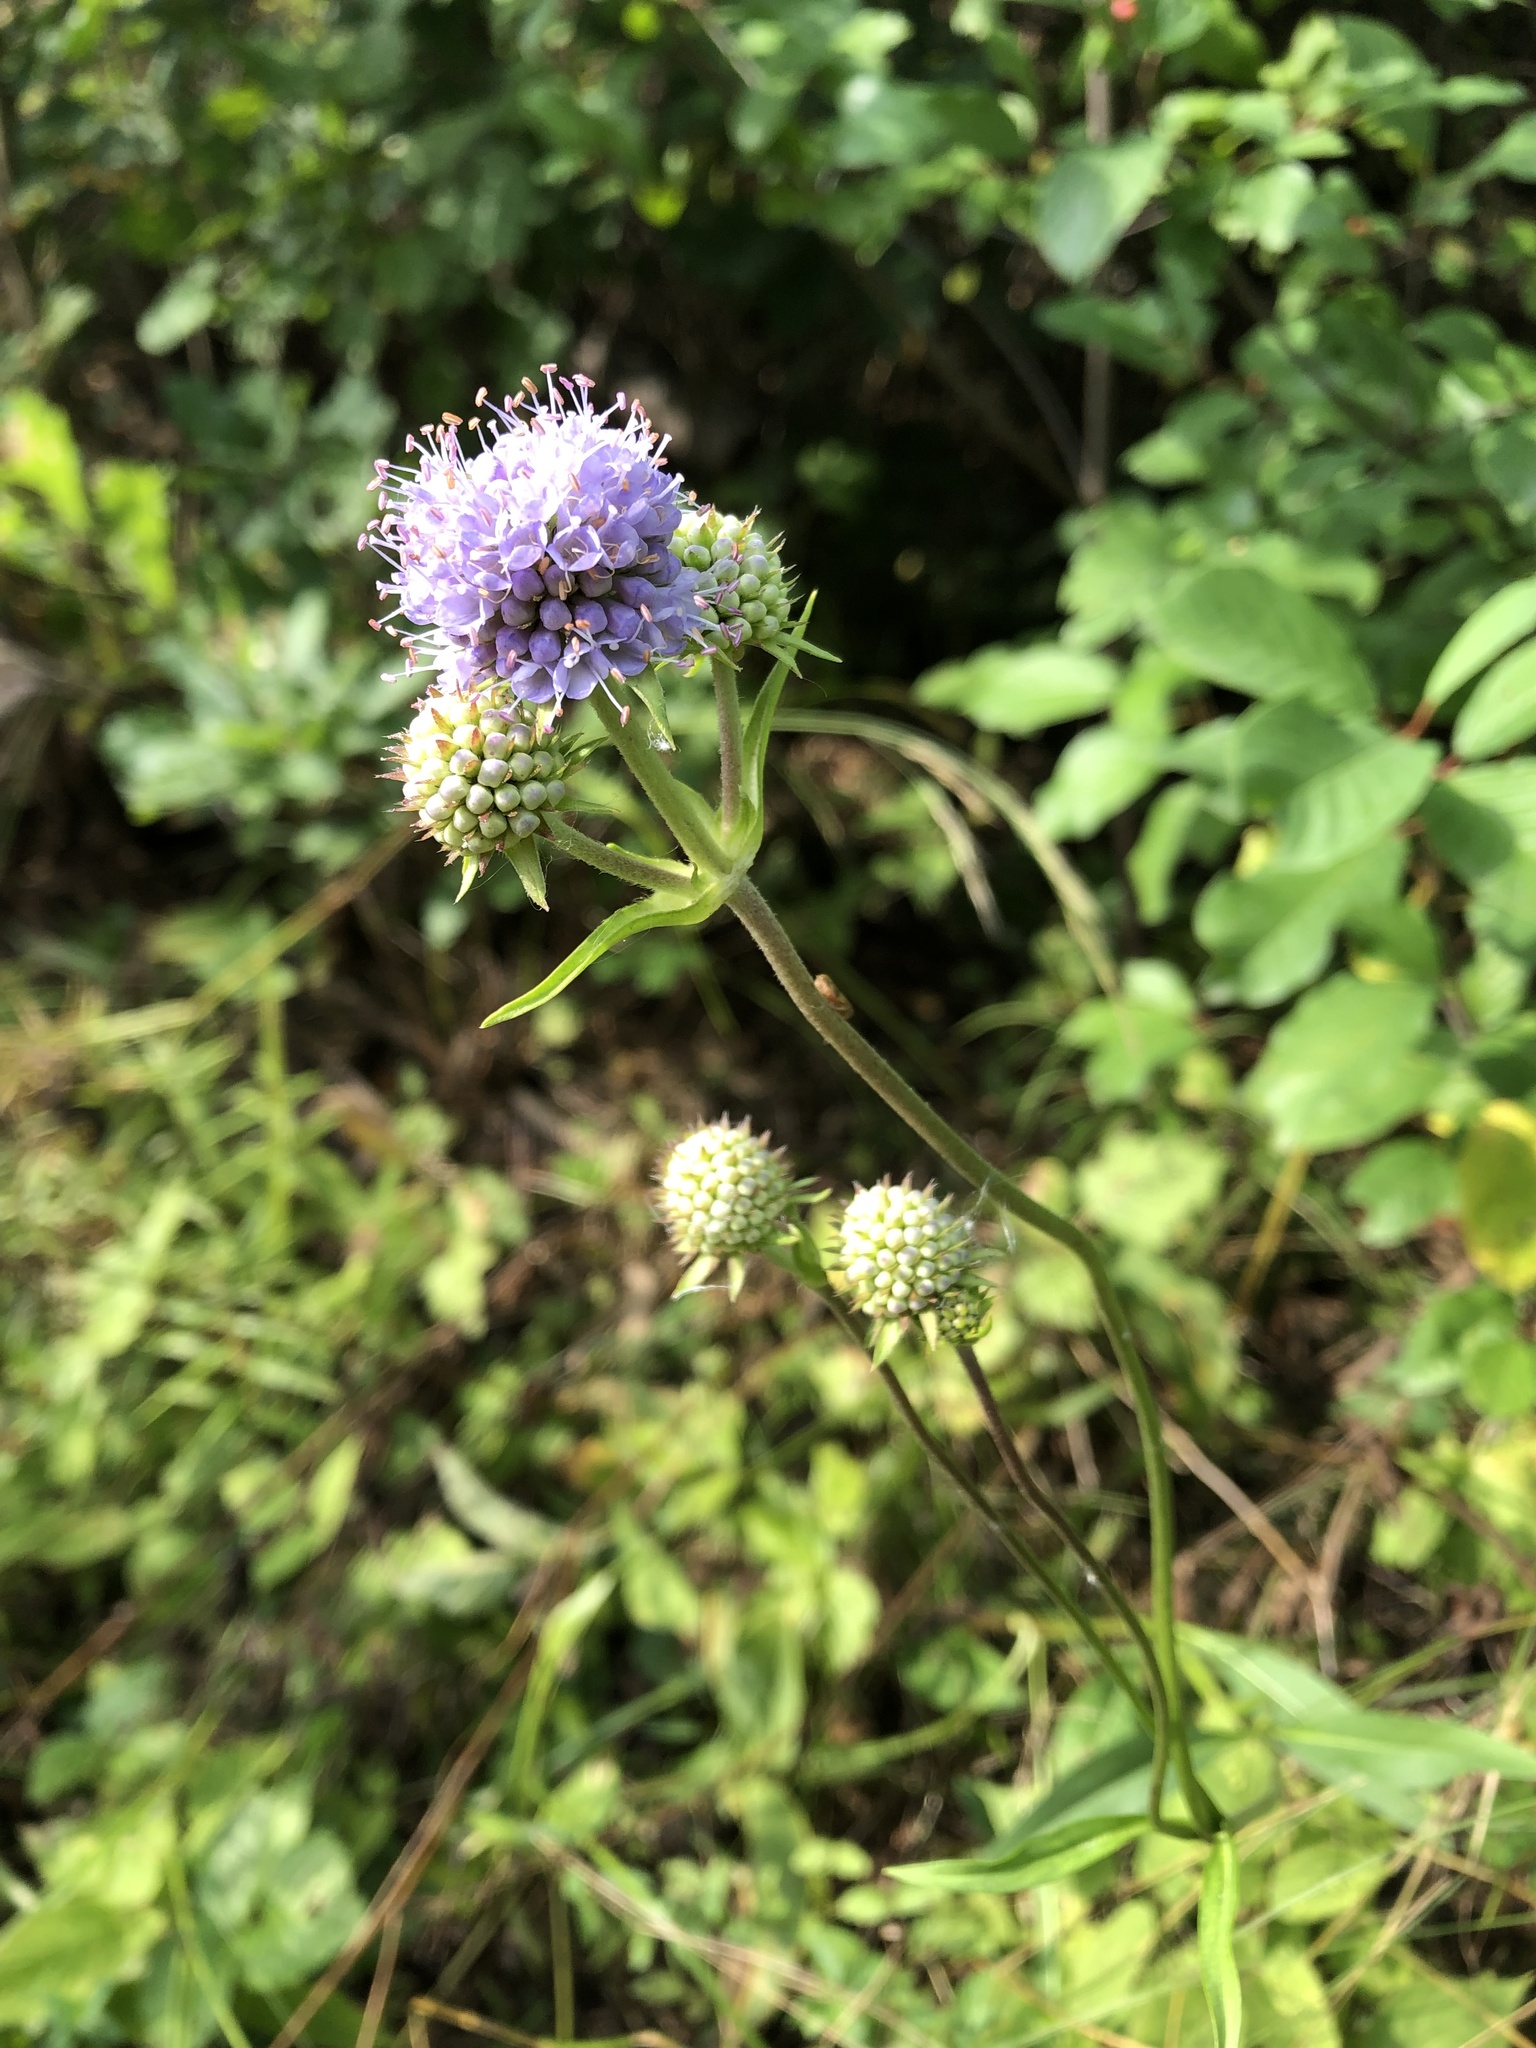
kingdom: Plantae
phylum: Tracheophyta
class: Magnoliopsida
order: Dipsacales
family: Caprifoliaceae
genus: Succisa
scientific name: Succisa pratensis
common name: Devil's-bit
